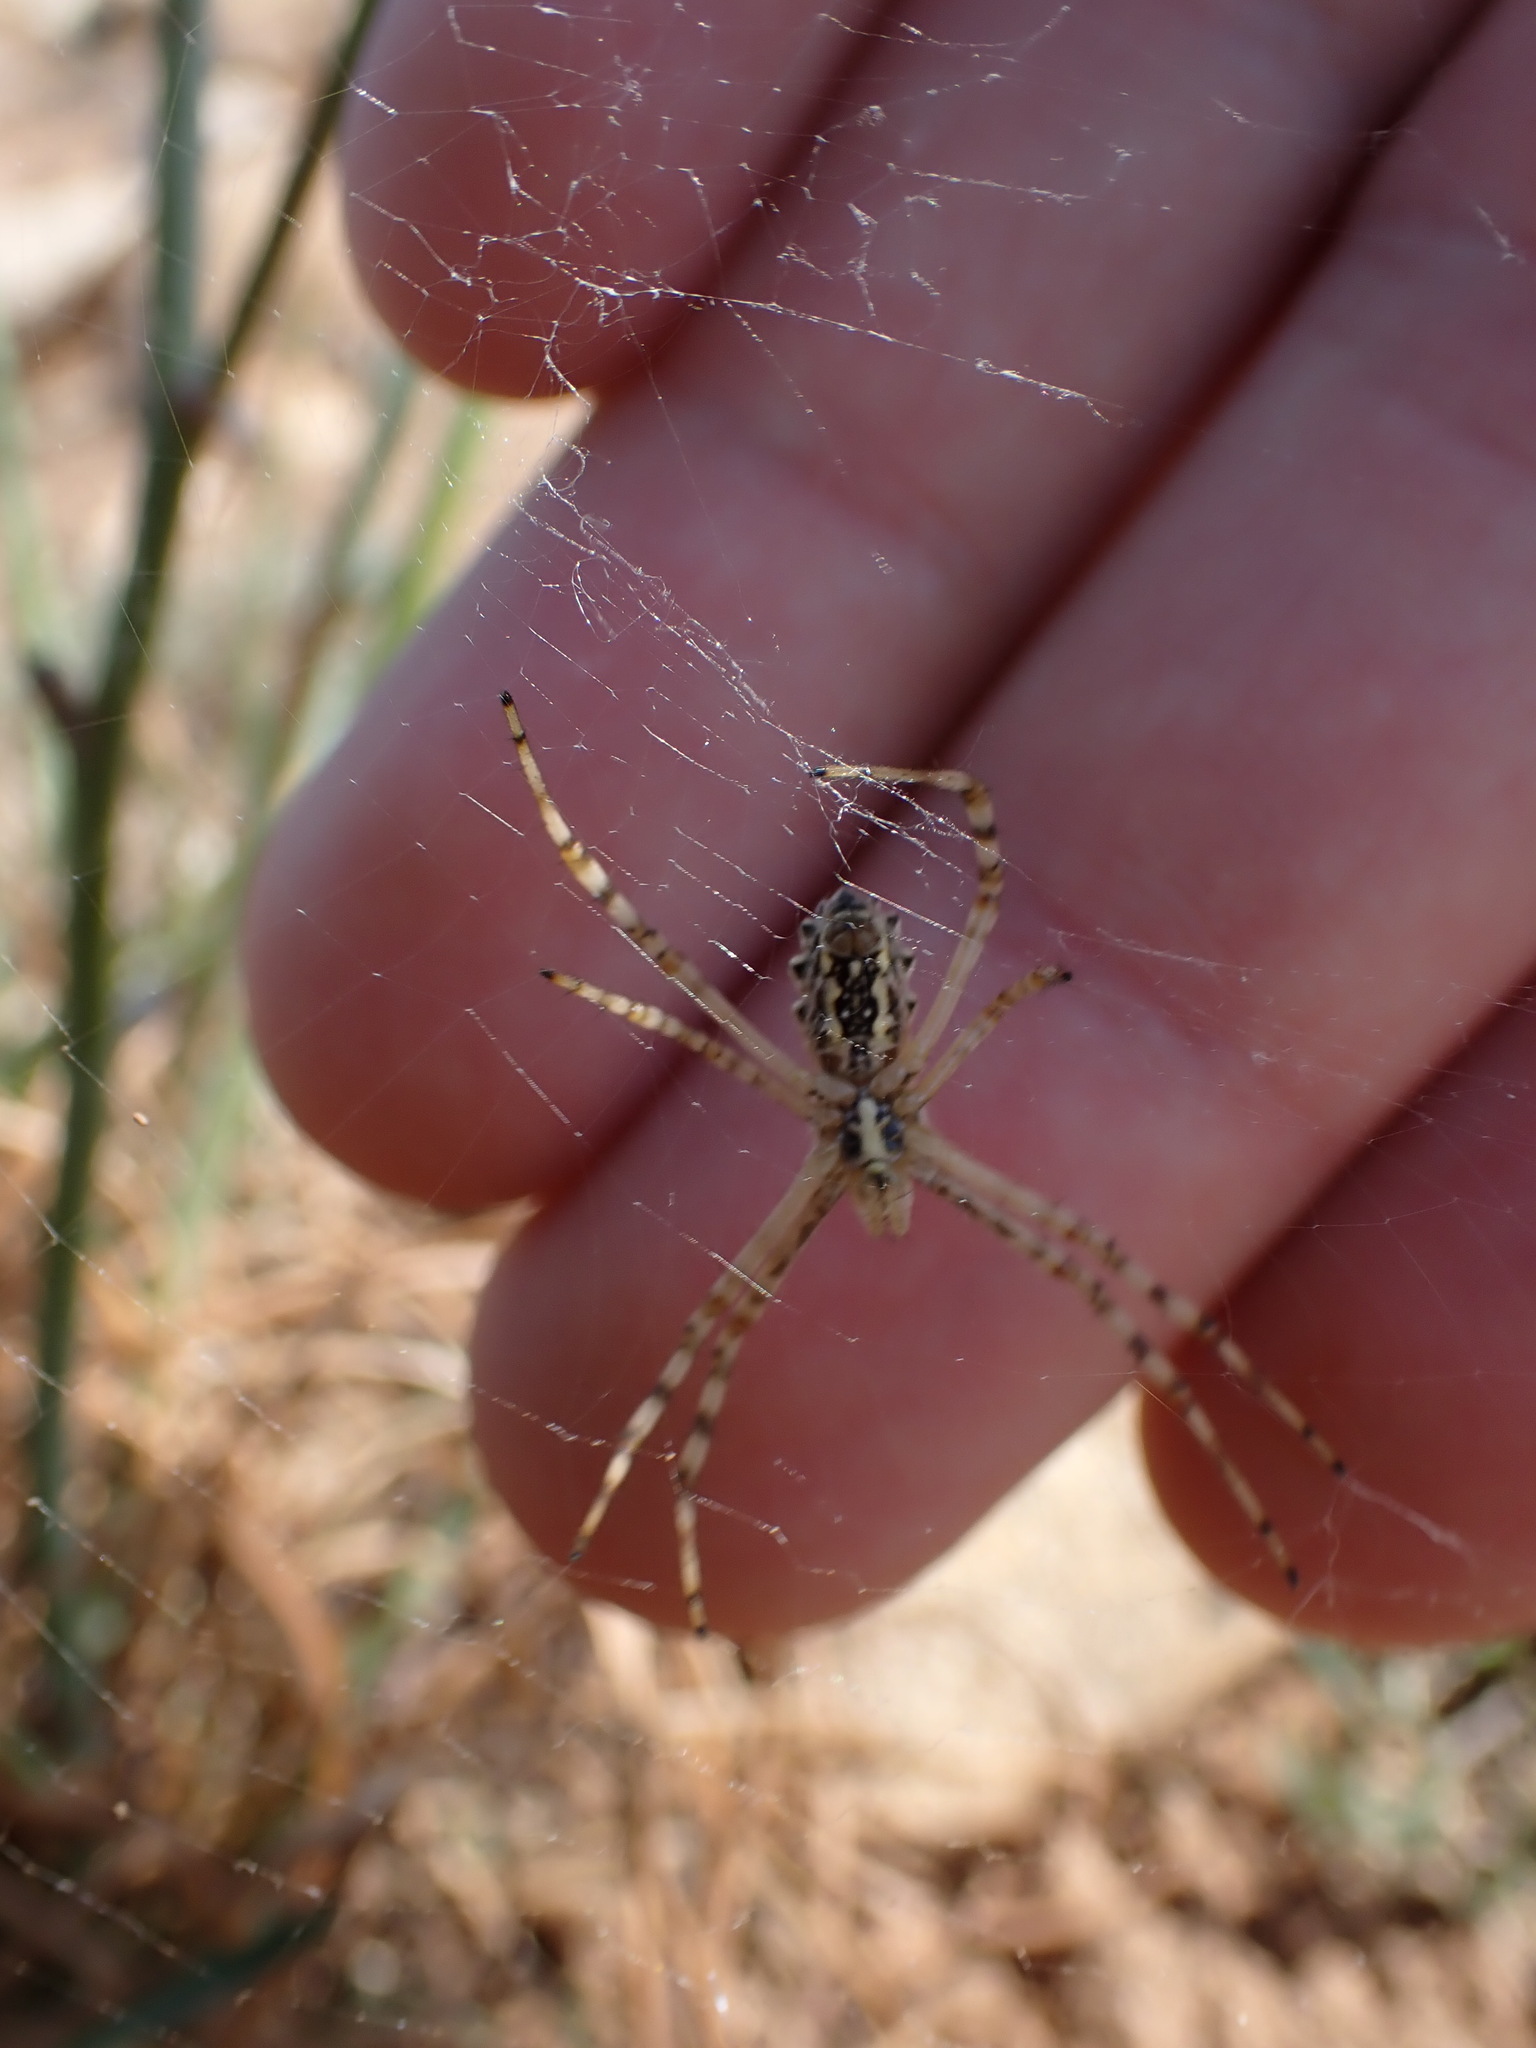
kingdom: Animalia
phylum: Arthropoda
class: Arachnida
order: Araneae
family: Araneidae
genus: Argiope
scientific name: Argiope lobata
